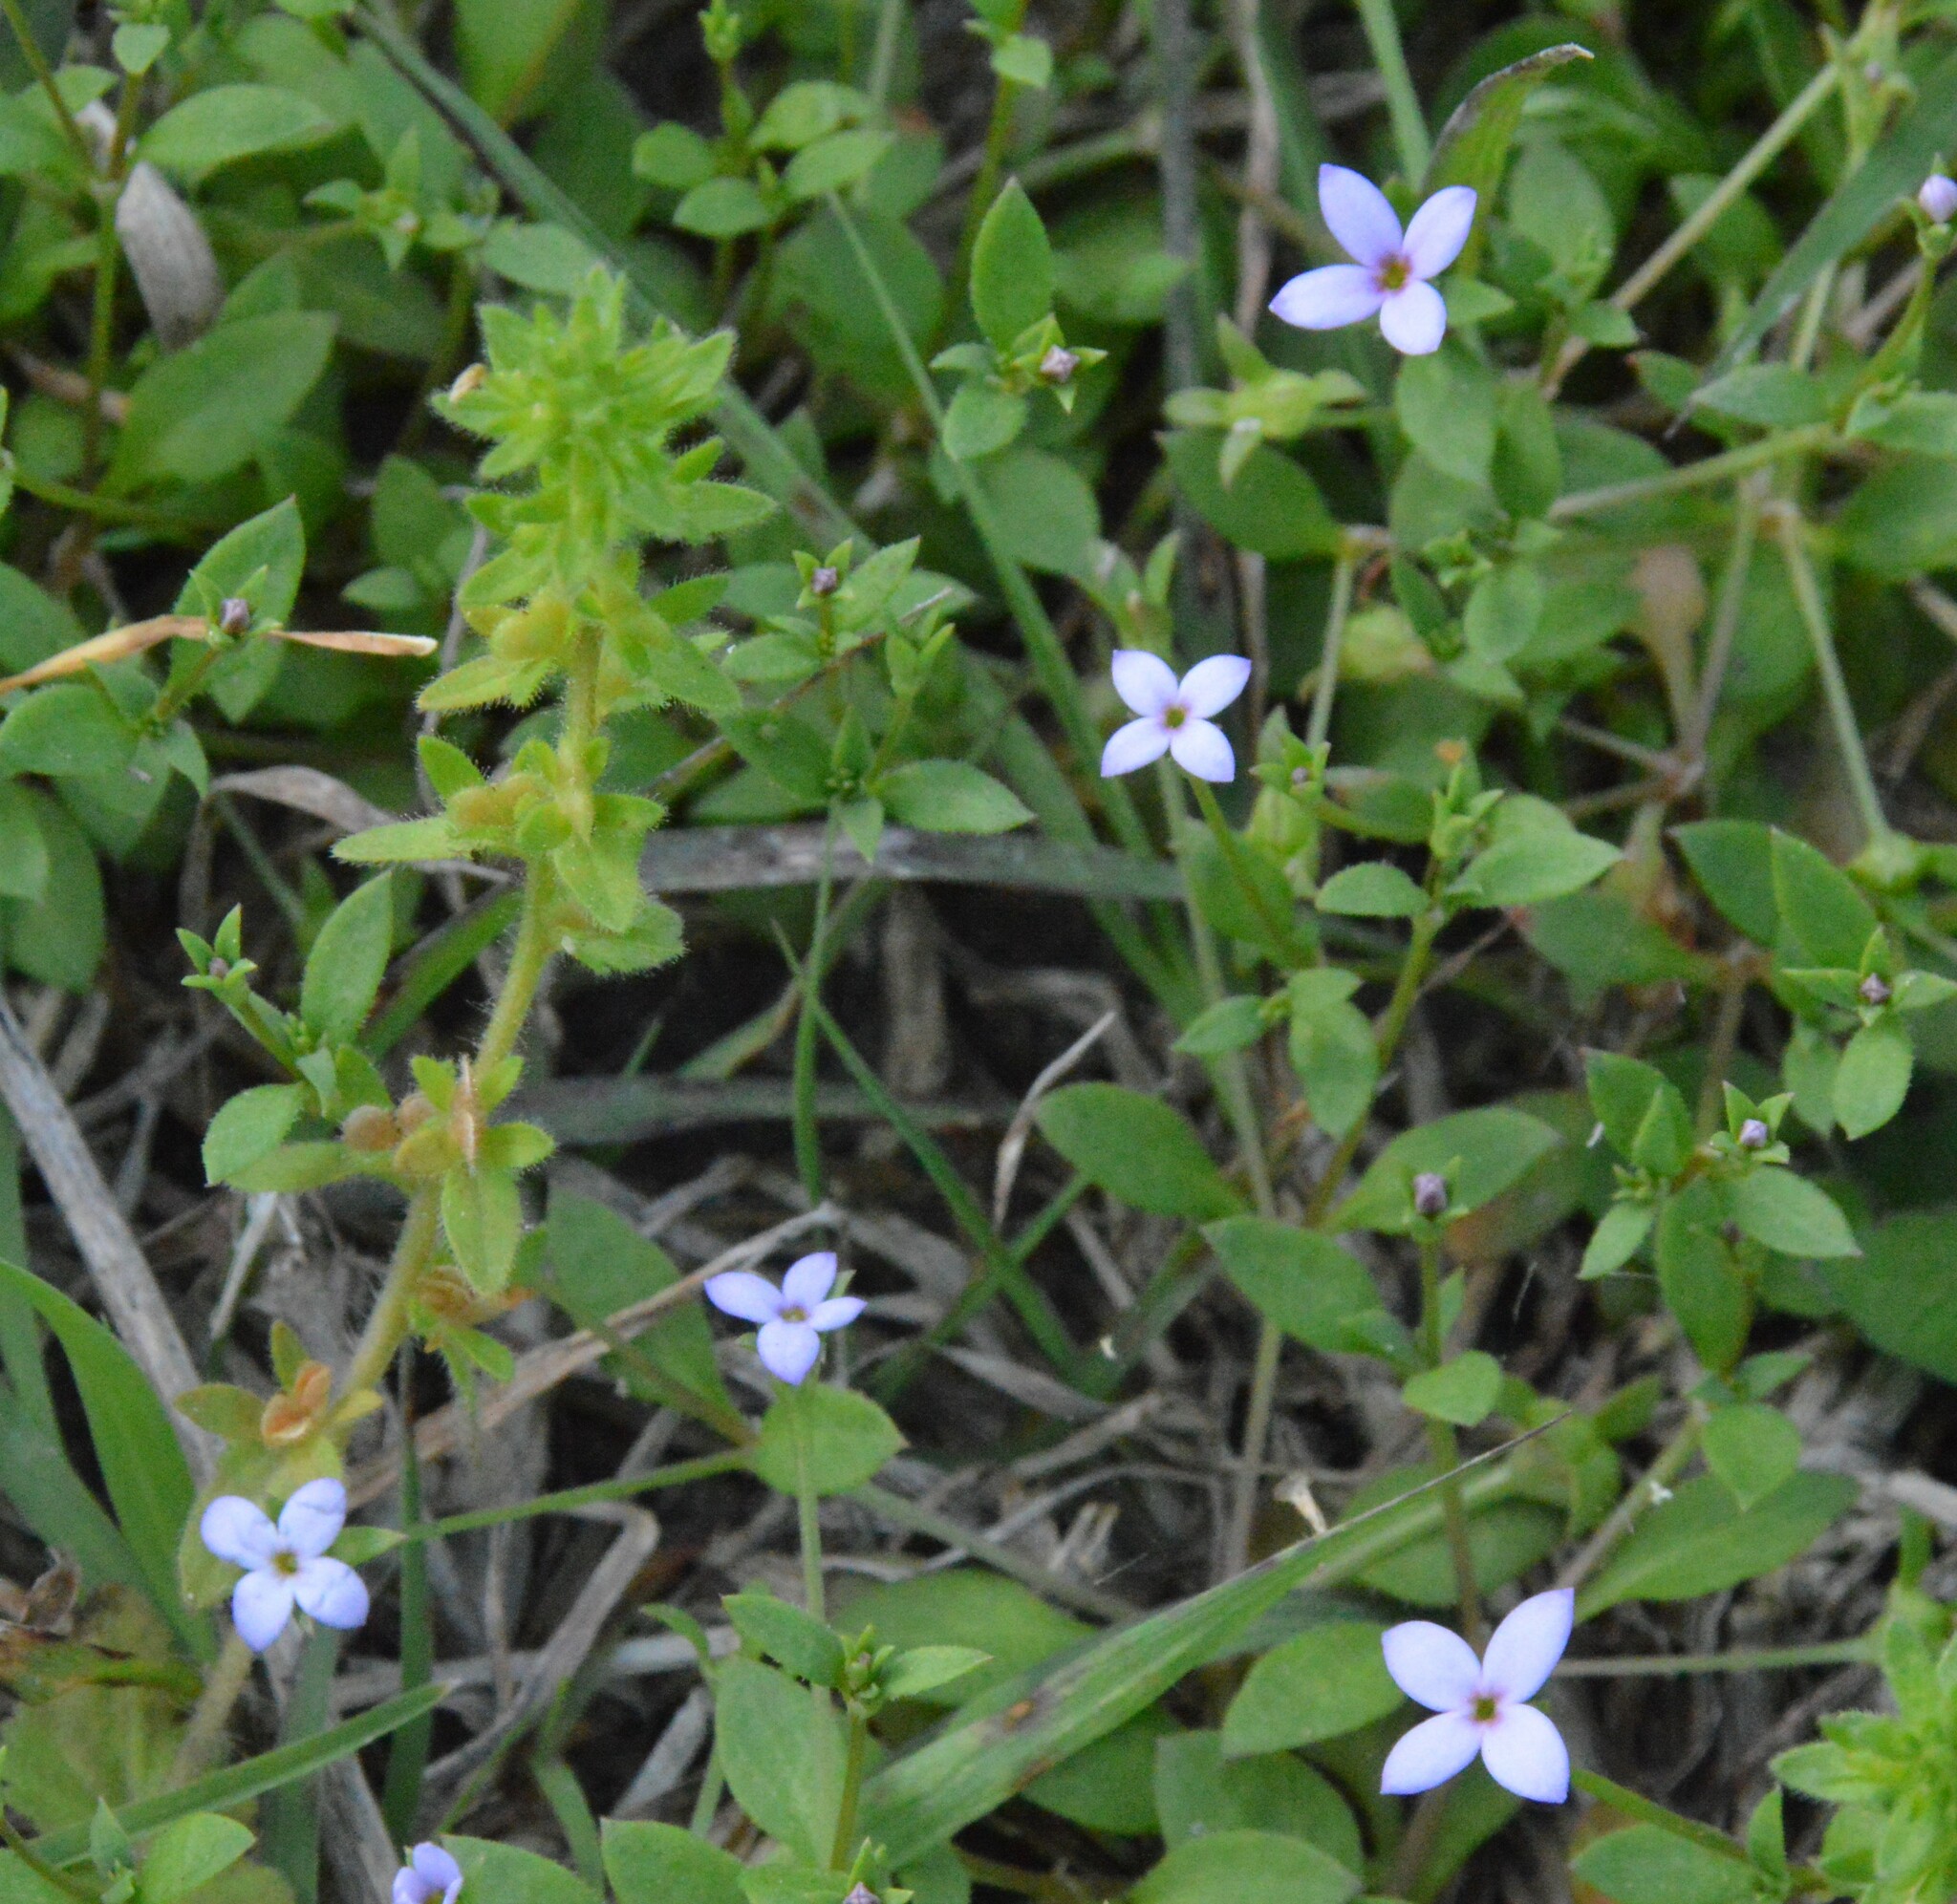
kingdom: Plantae
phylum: Tracheophyta
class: Magnoliopsida
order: Gentianales
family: Rubiaceae
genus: Houstonia
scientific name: Houstonia pusilla
